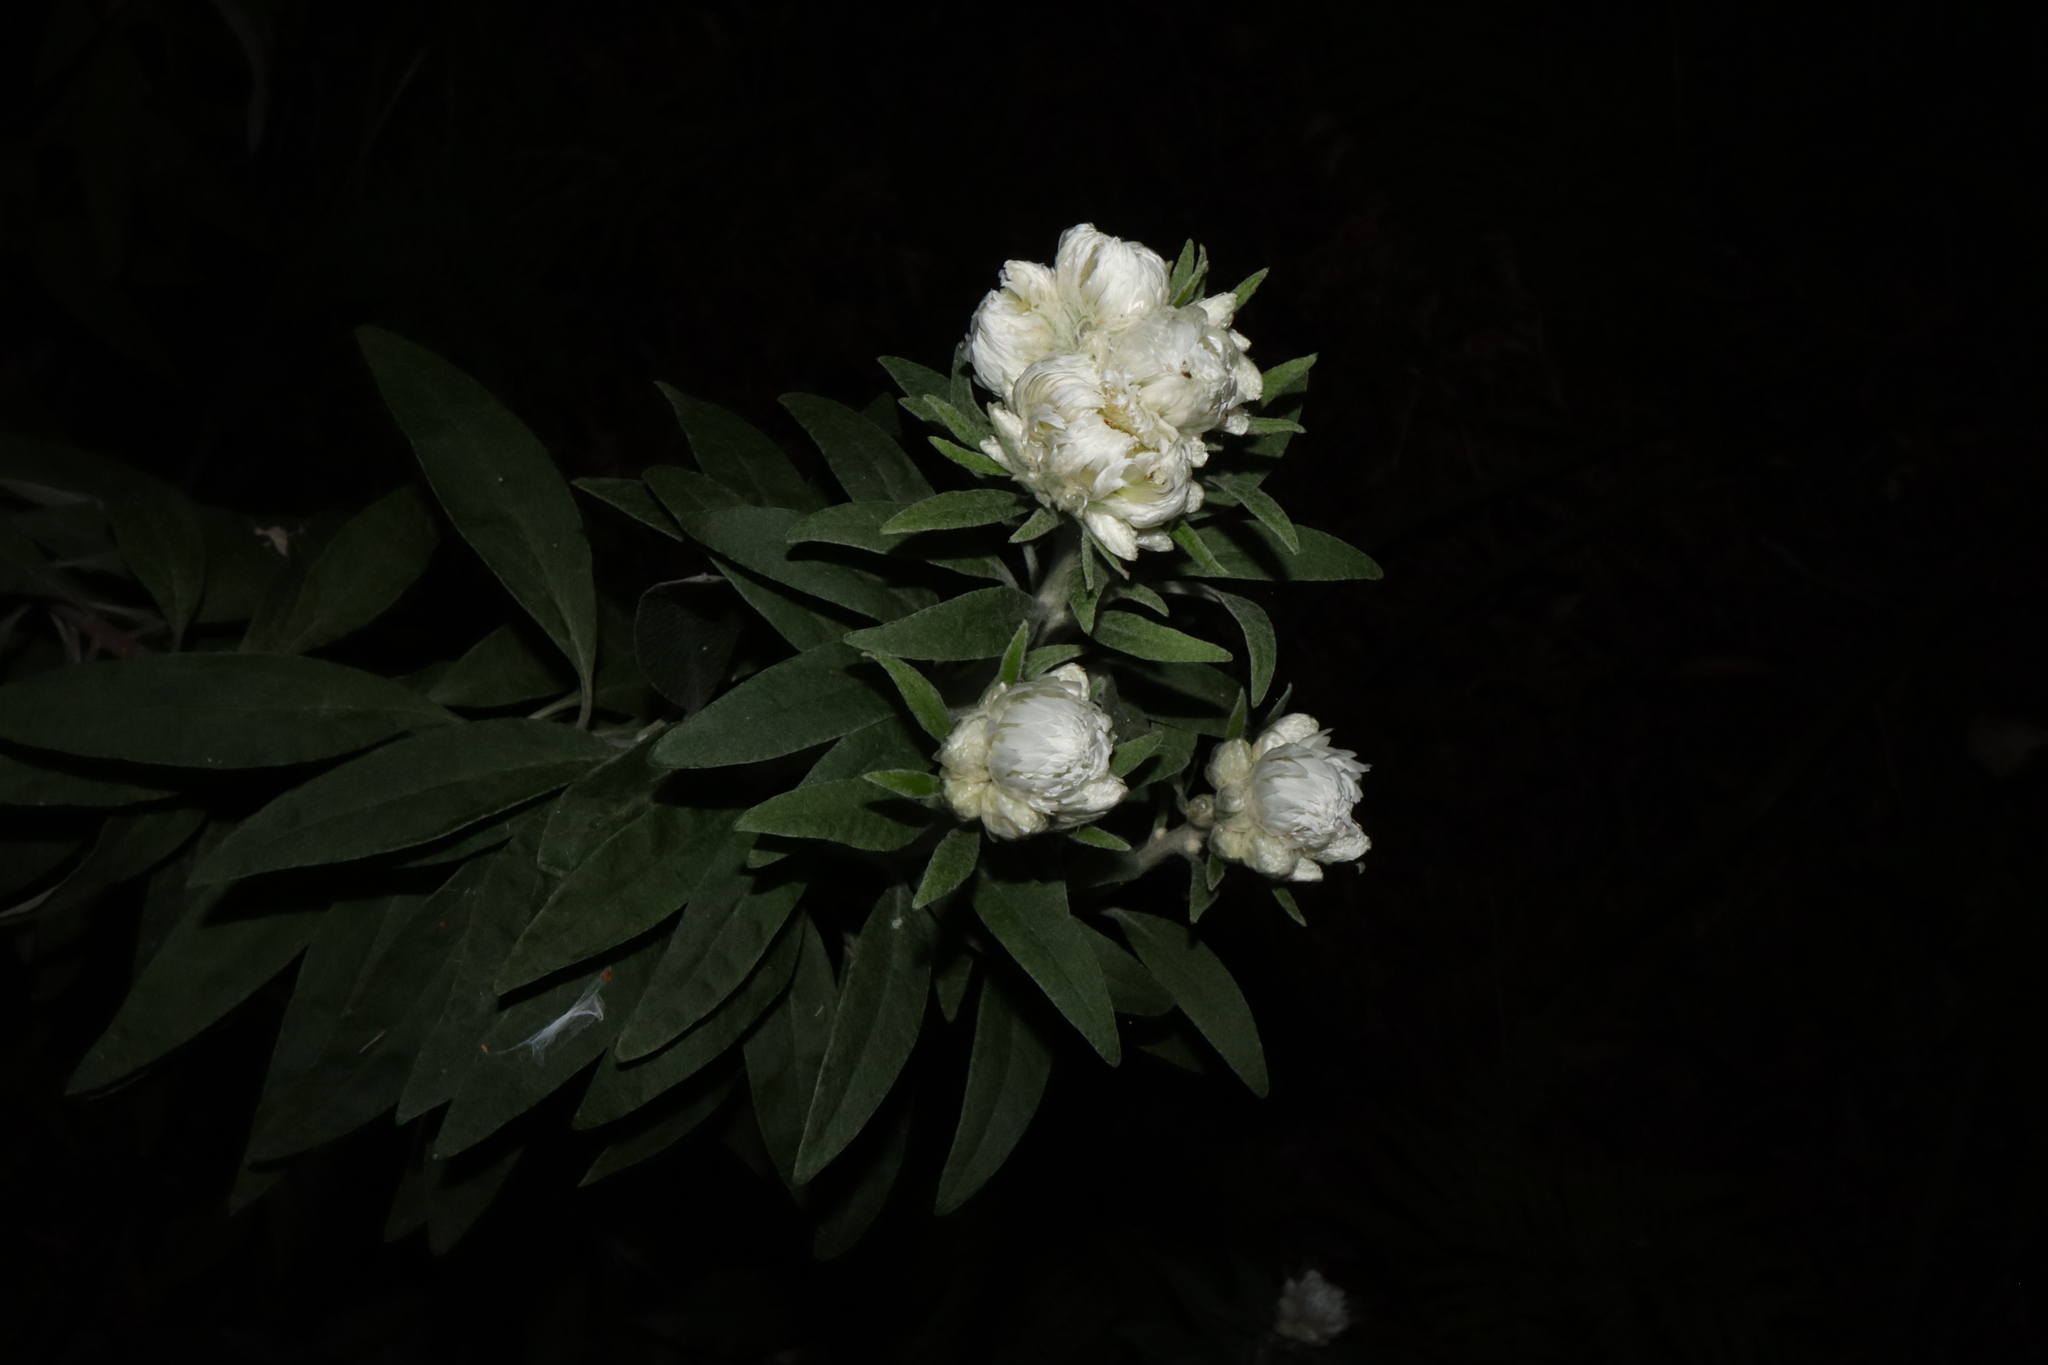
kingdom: Plantae
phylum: Tracheophyta
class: Magnoliopsida
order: Asterales
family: Asteraceae
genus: Leucozoma
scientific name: Leucozoma elatum
